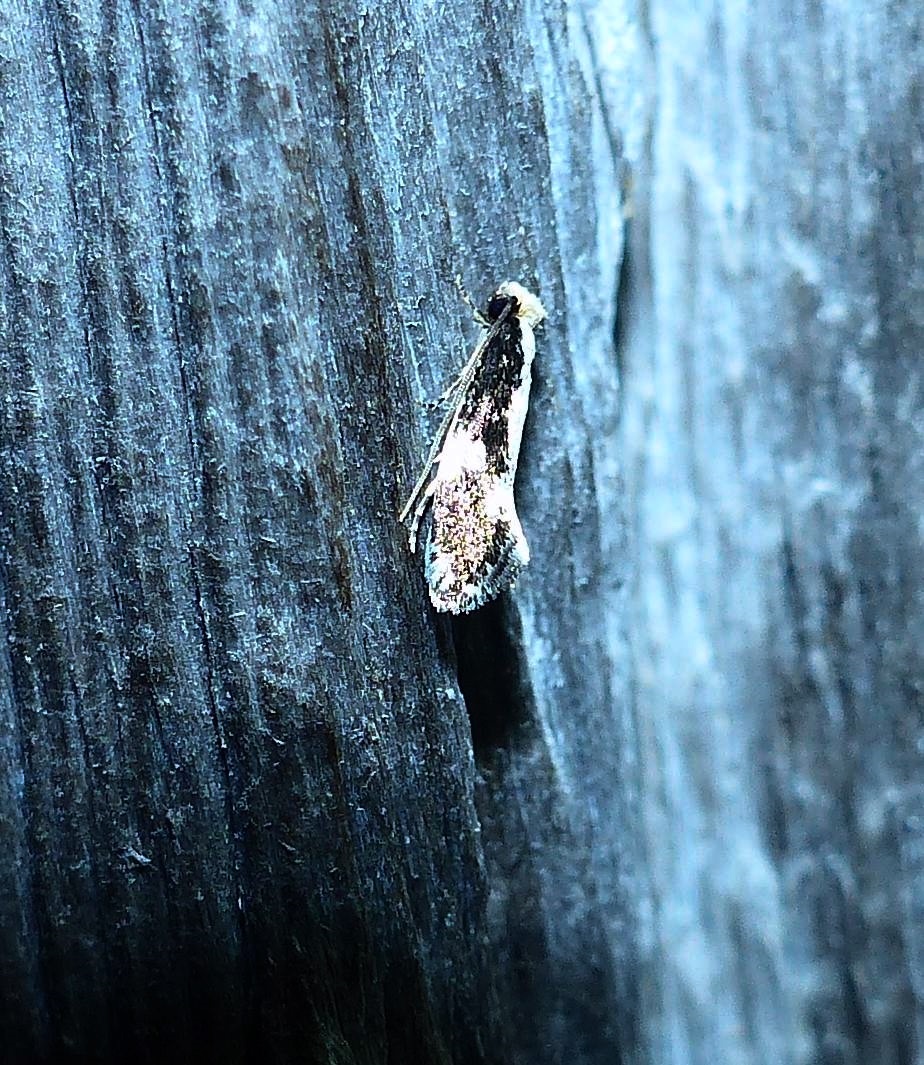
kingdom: Animalia
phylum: Arthropoda
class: Insecta
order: Lepidoptera
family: Tineidae
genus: Monopis
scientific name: Monopis dorsistrigella
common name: Skunkback monopis moth
